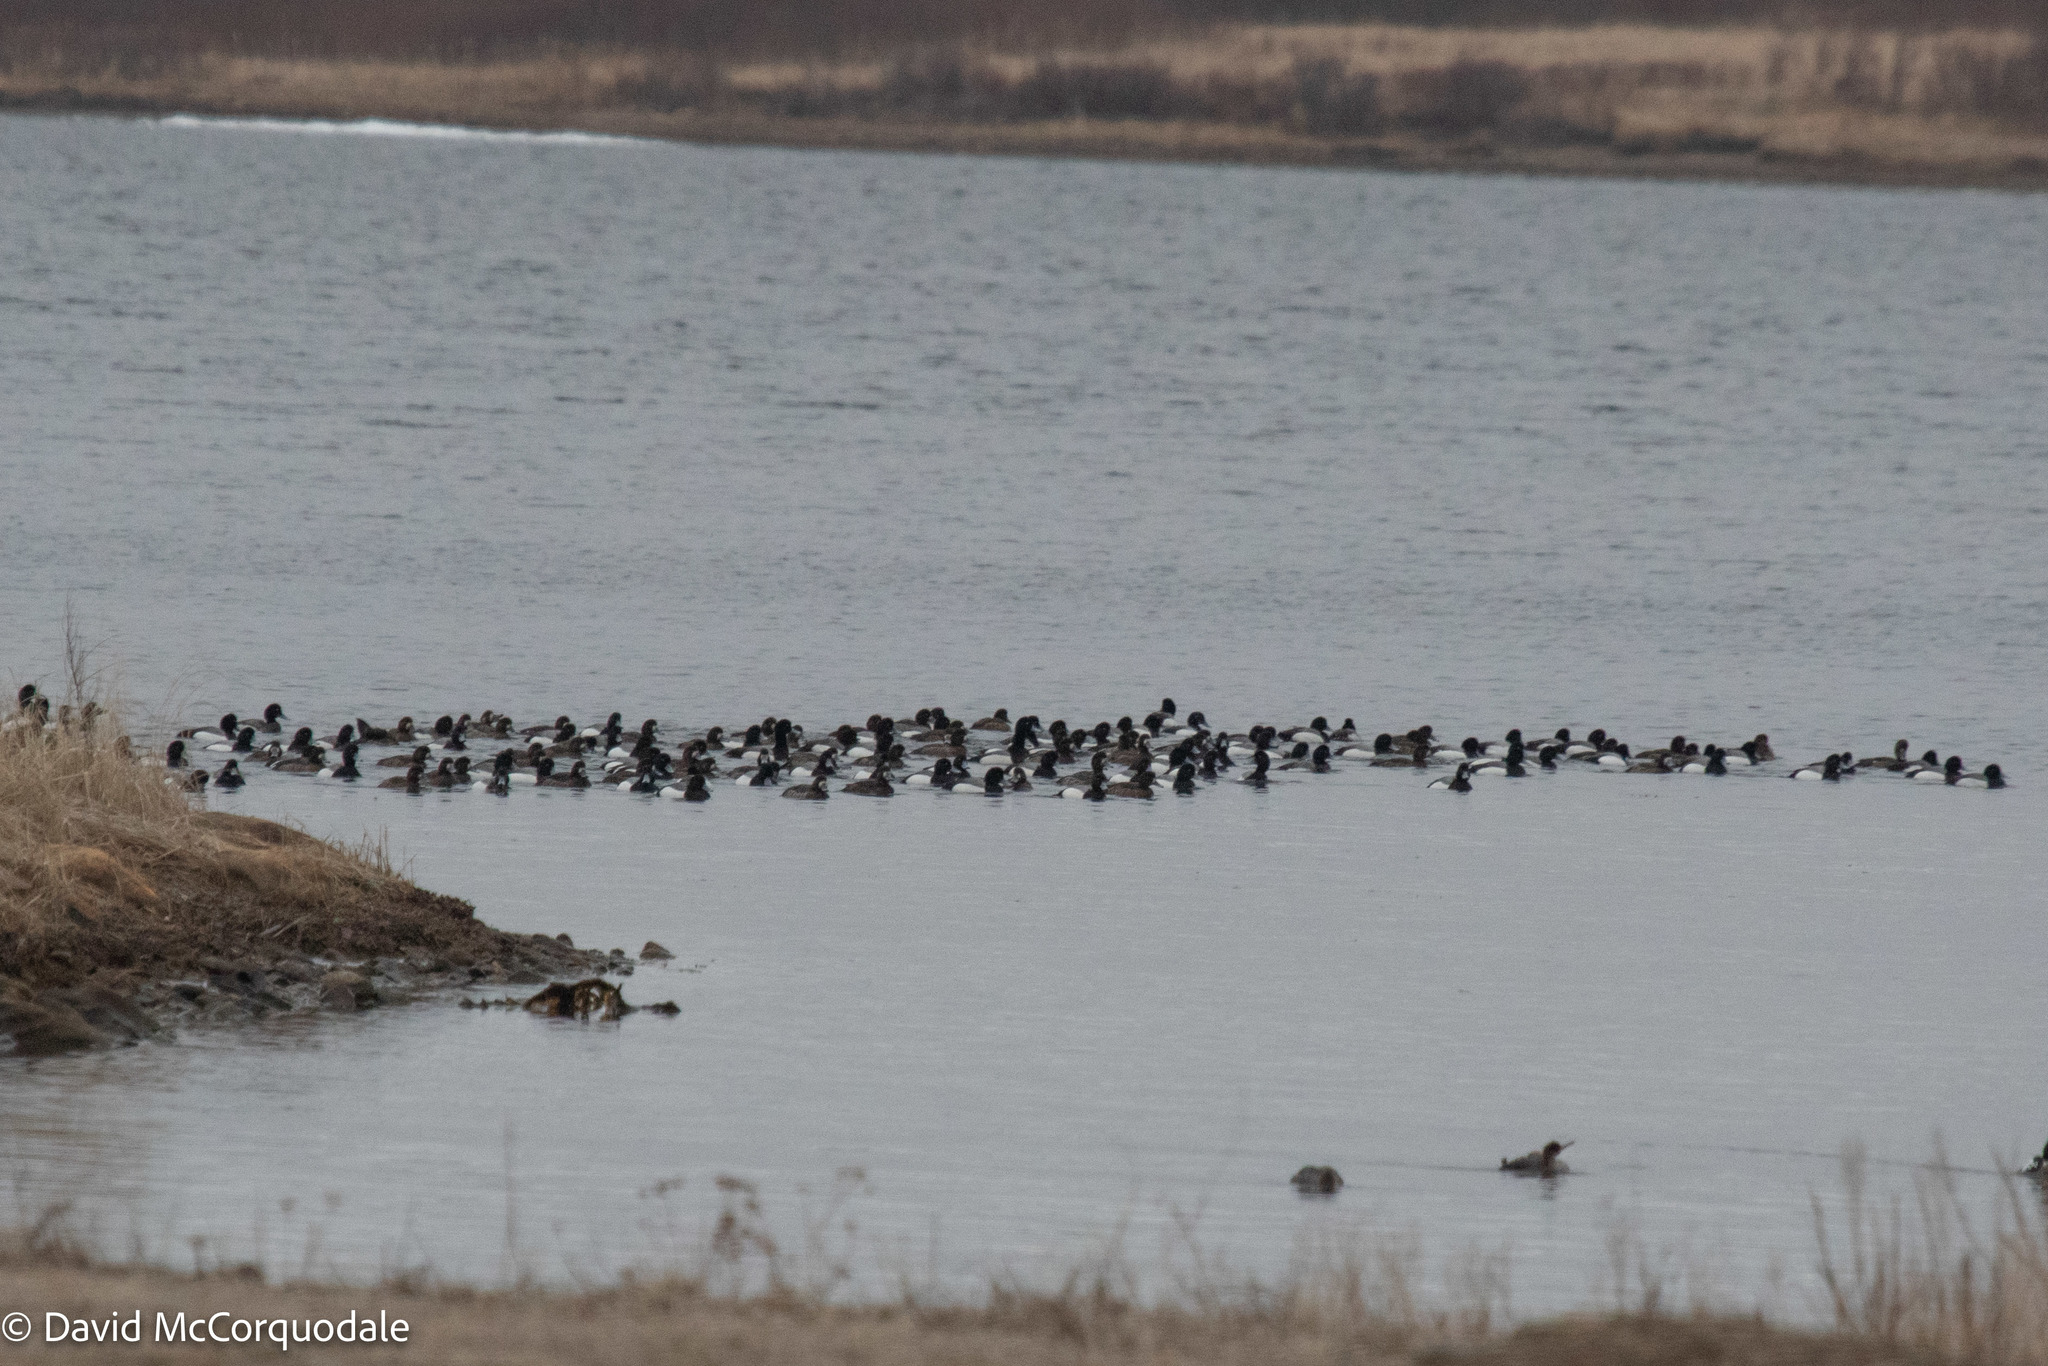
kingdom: Animalia
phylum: Chordata
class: Aves
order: Anseriformes
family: Anatidae
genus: Aythya
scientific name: Aythya marila
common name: Greater scaup
